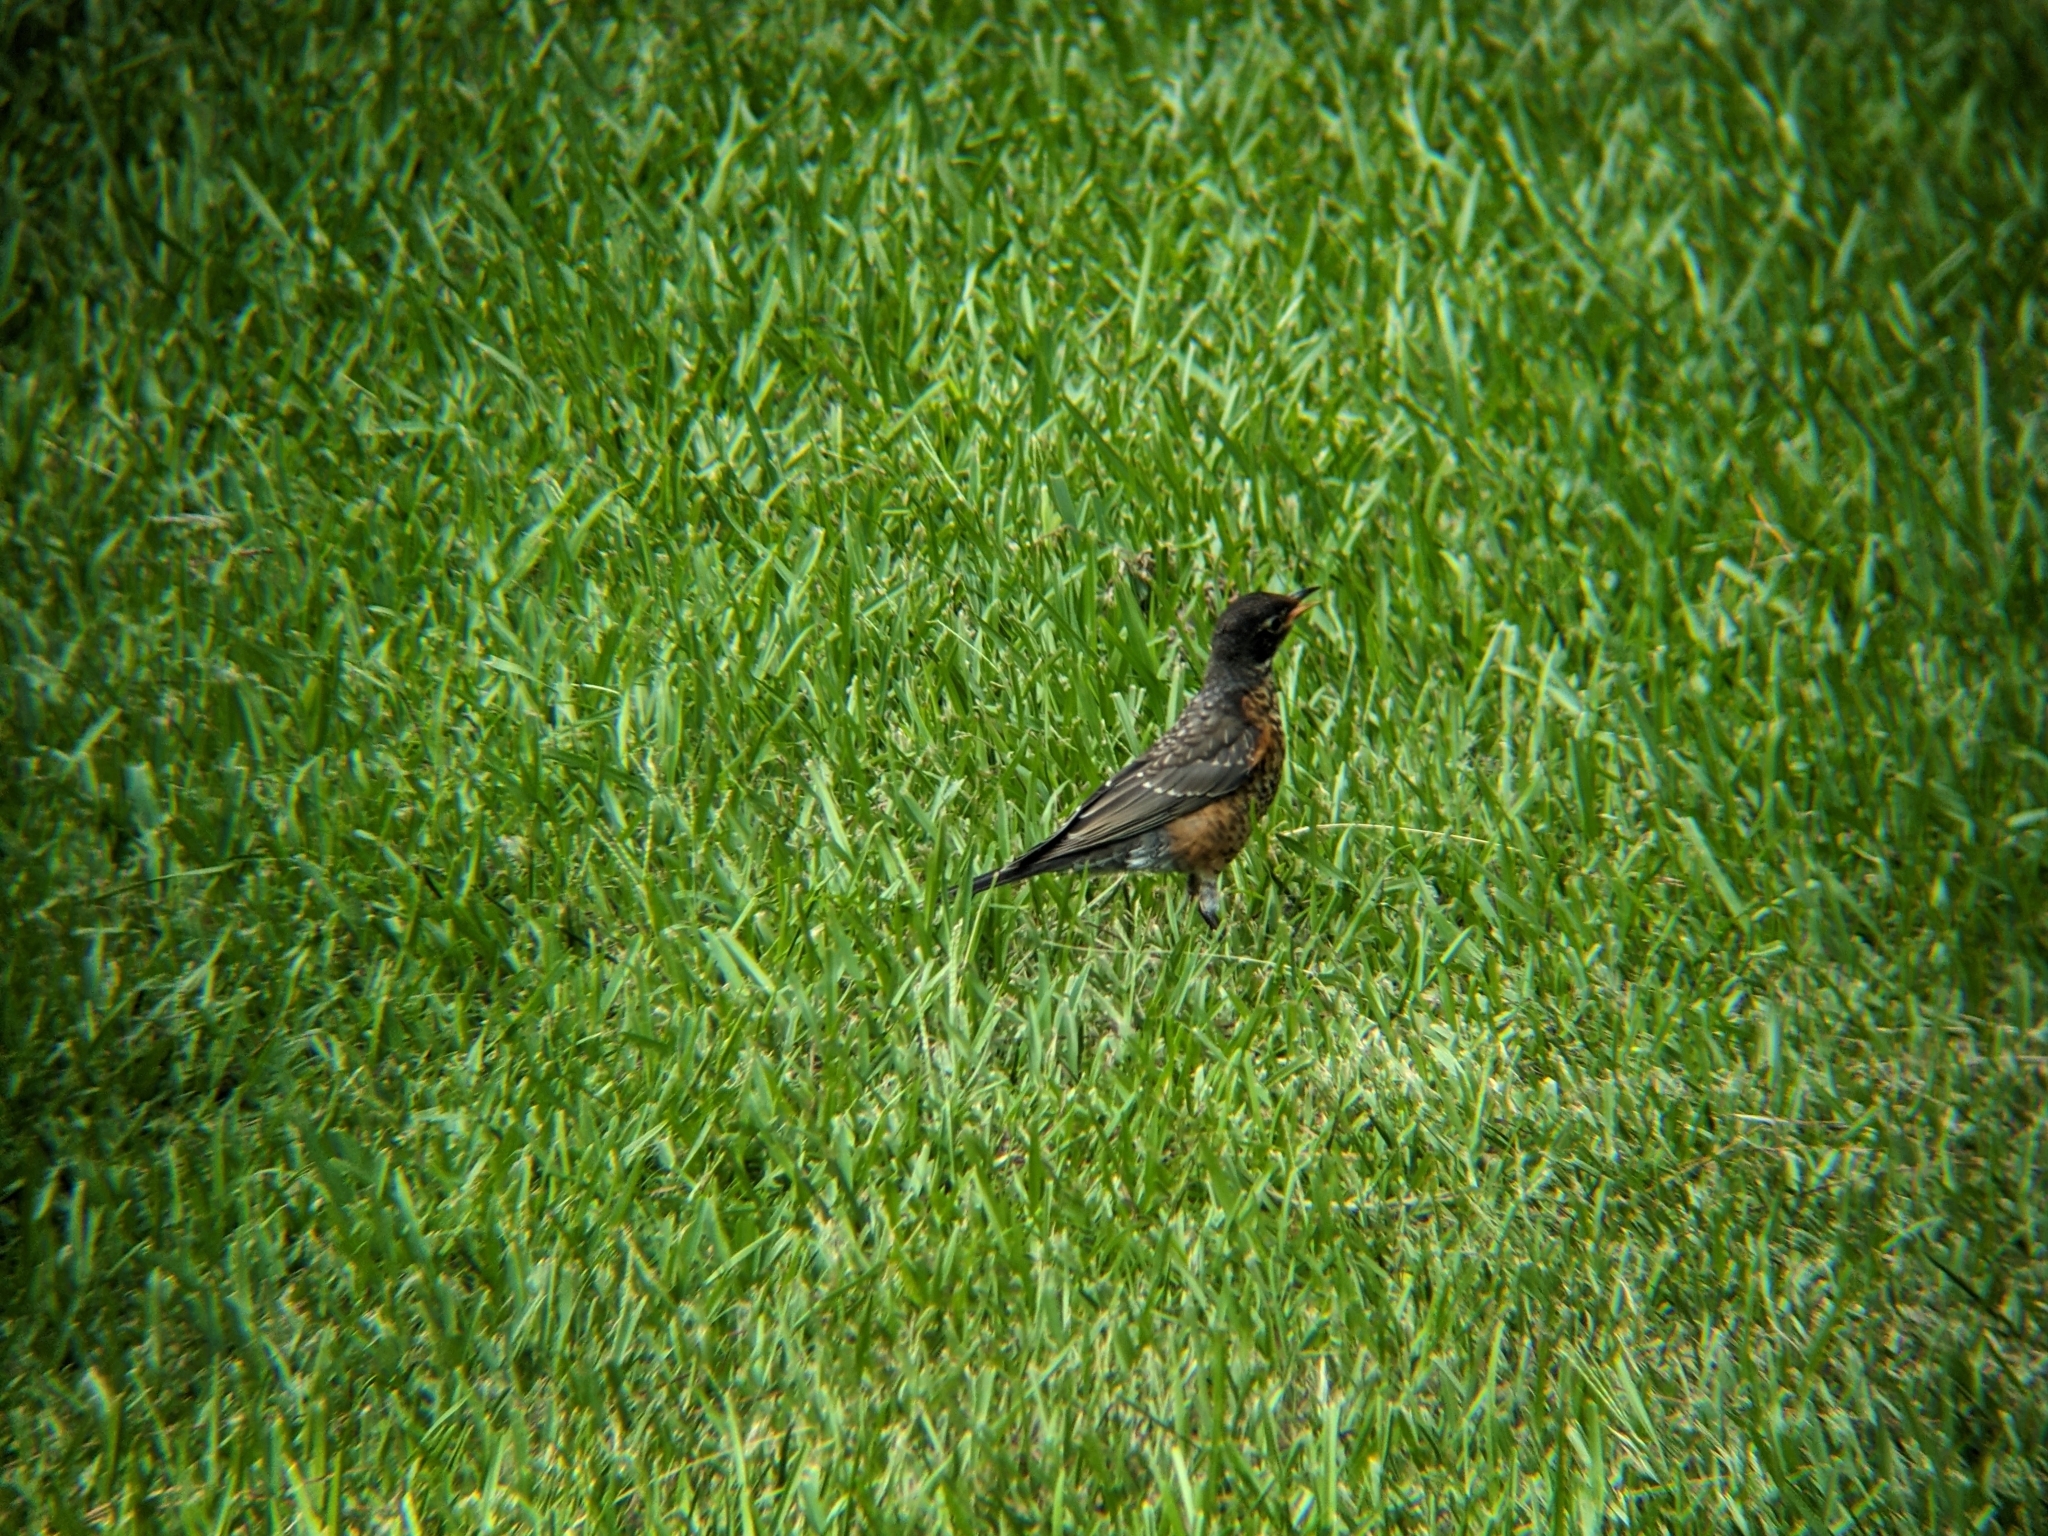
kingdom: Animalia
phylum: Chordata
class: Aves
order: Passeriformes
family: Turdidae
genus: Turdus
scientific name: Turdus migratorius
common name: American robin
